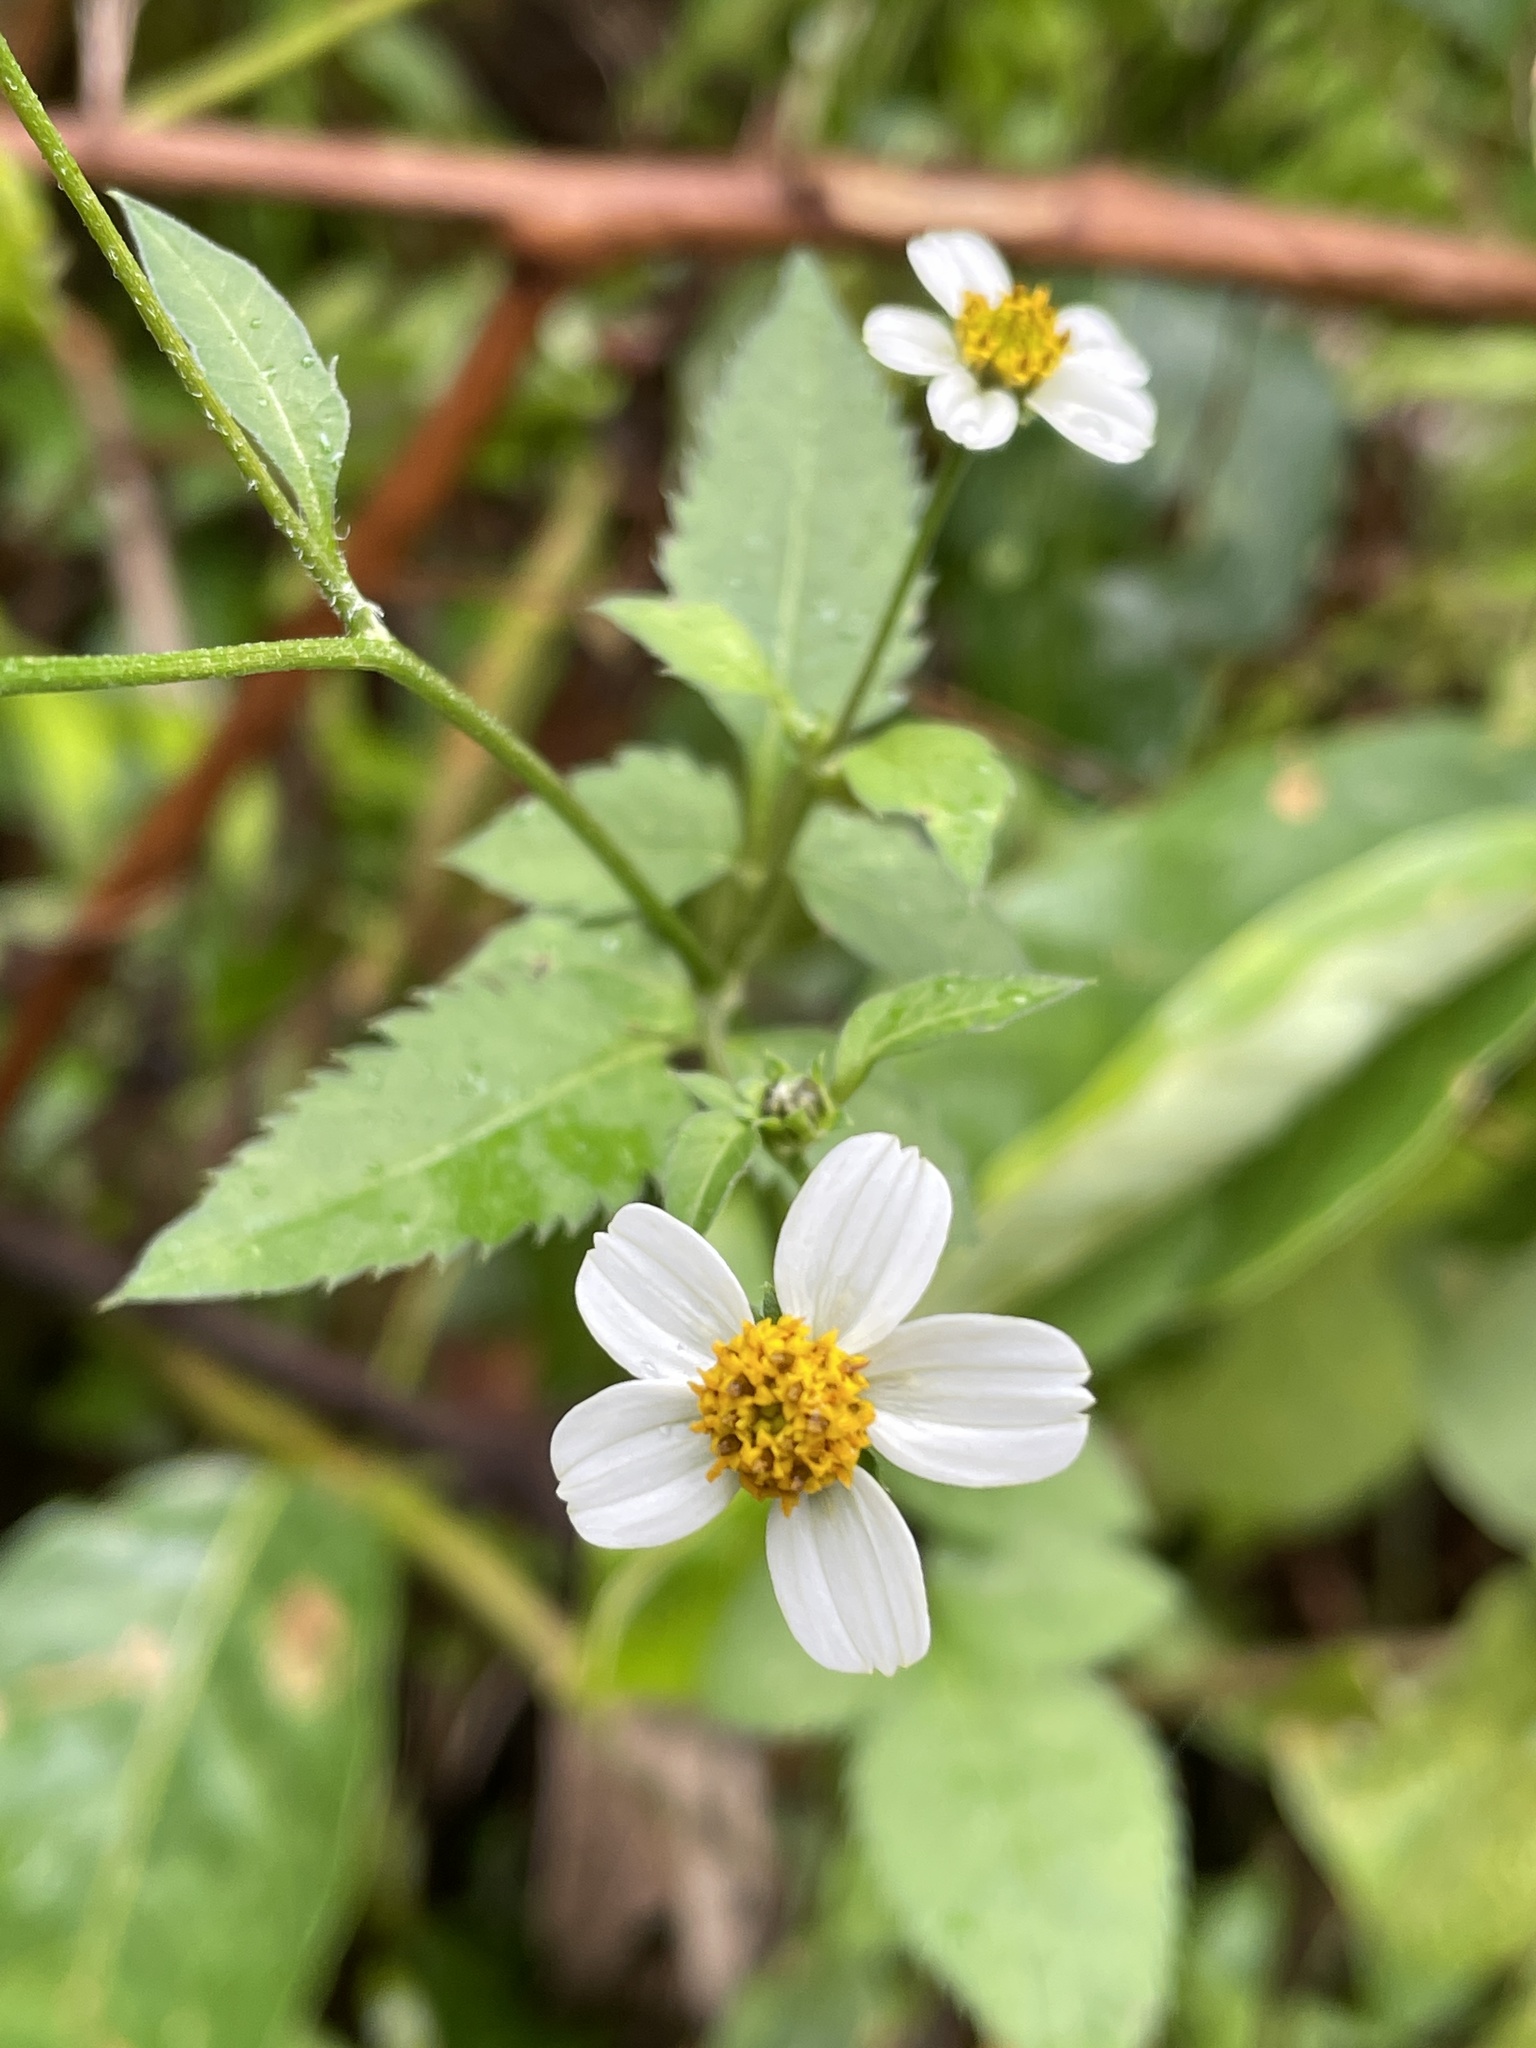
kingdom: Plantae
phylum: Tracheophyta
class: Magnoliopsida
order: Asterales
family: Asteraceae
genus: Bidens
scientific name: Bidens pilosa
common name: Black-jack
